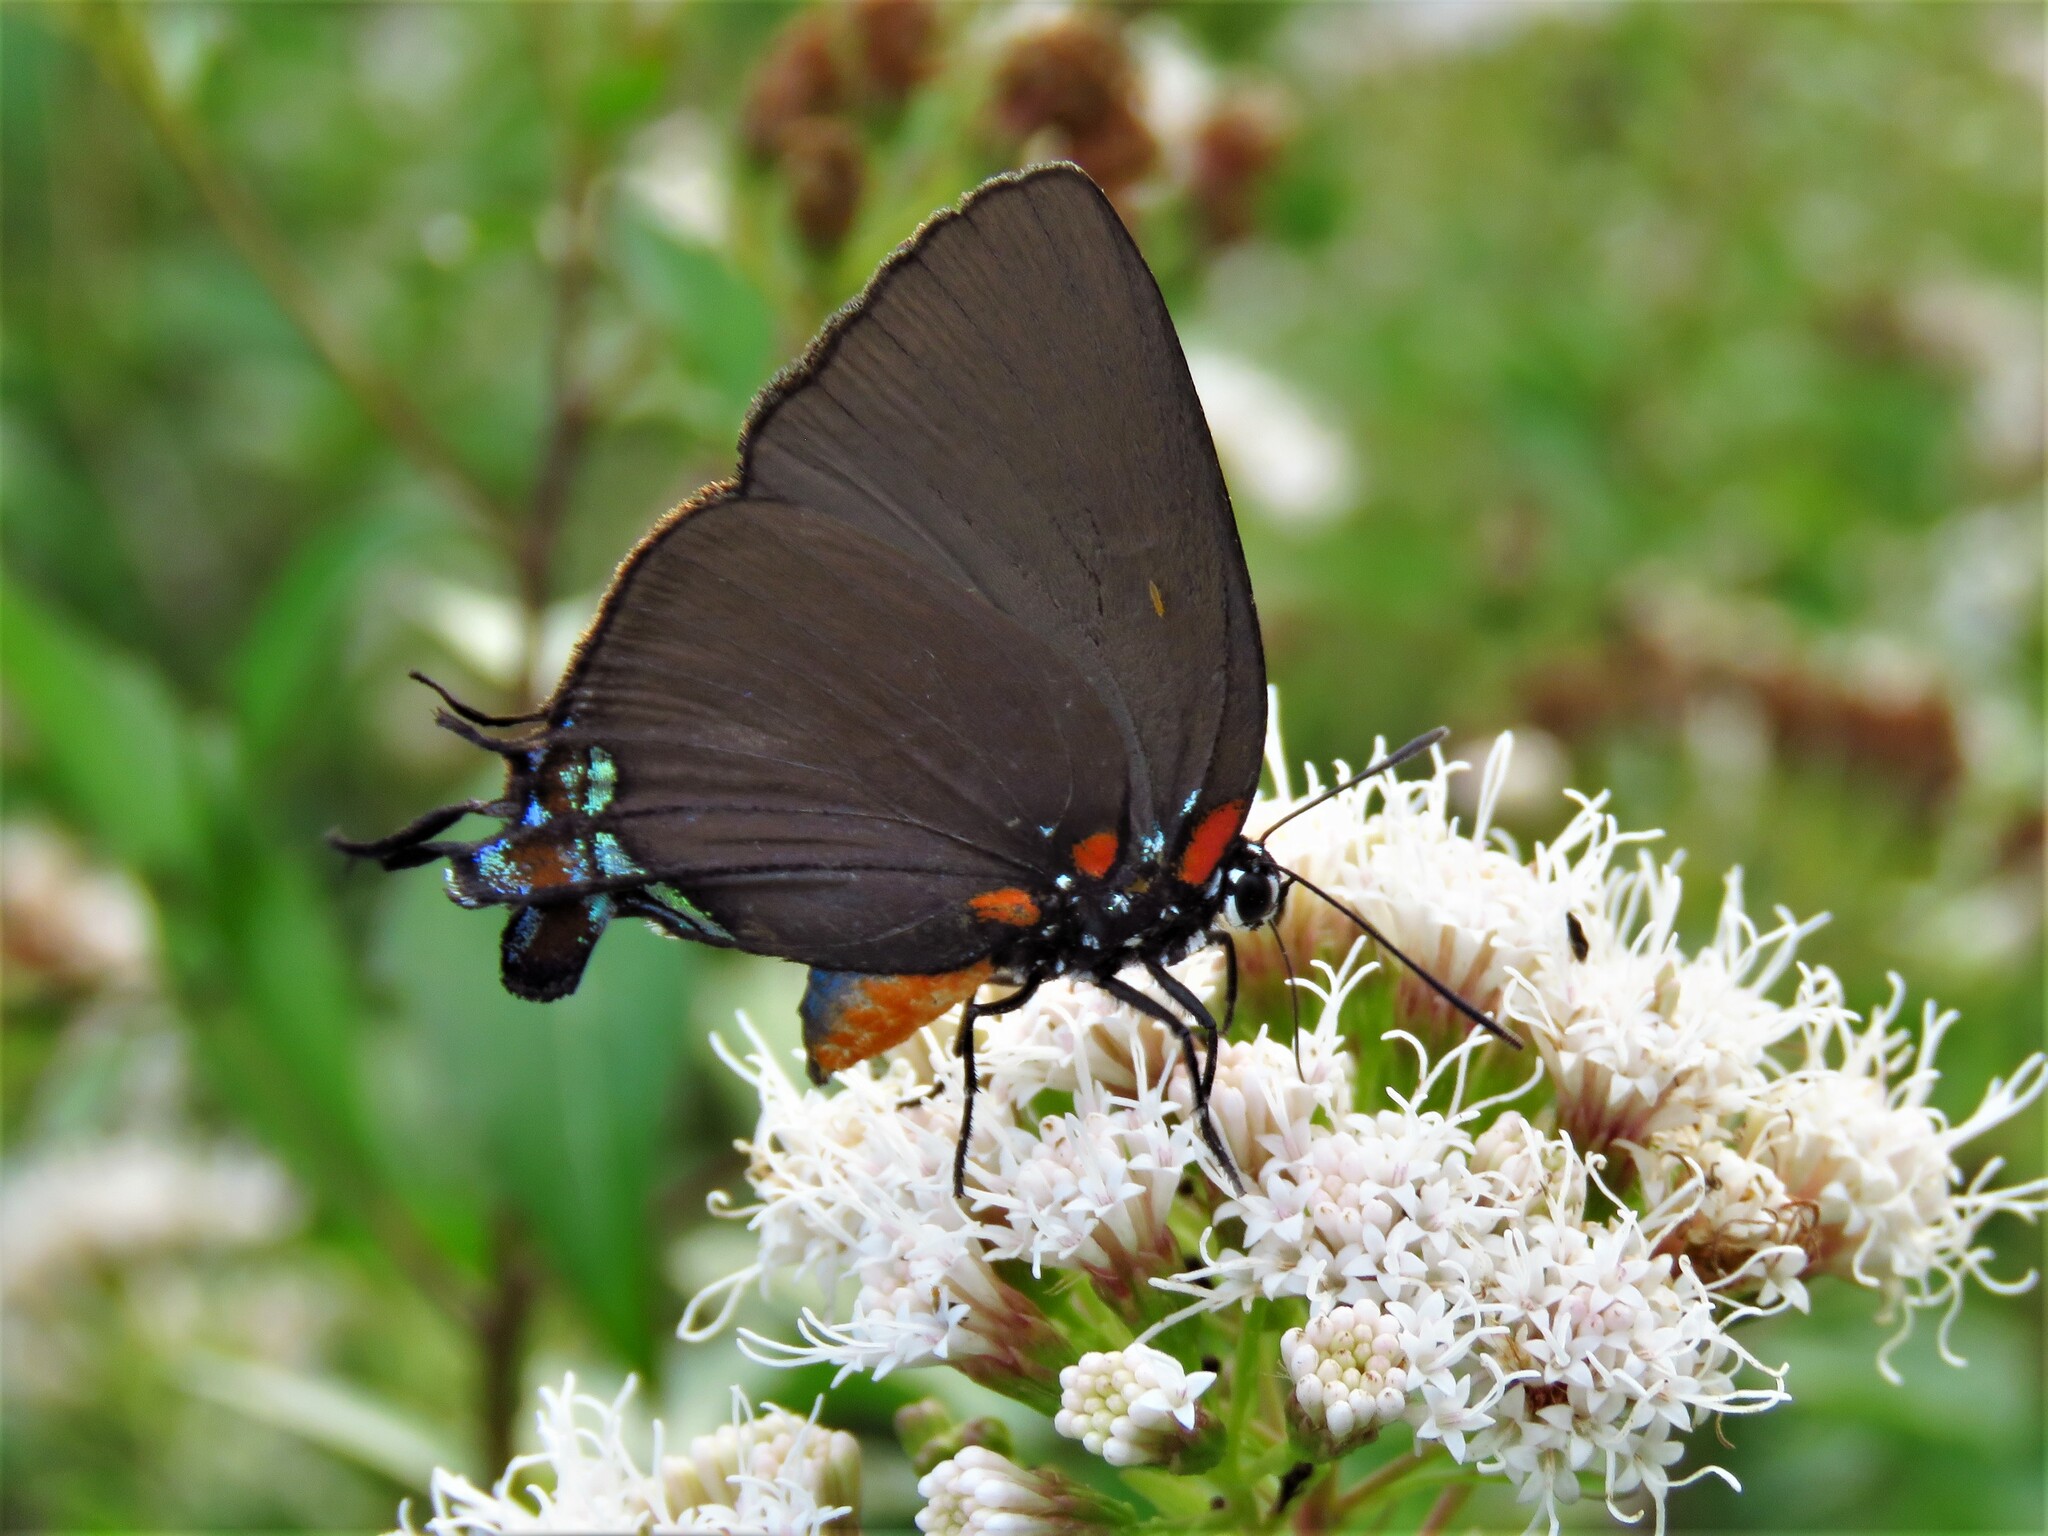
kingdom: Animalia
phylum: Arthropoda
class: Insecta
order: Lepidoptera
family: Lycaenidae
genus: Atlides
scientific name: Atlides halesus
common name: Great purple hairstreak
